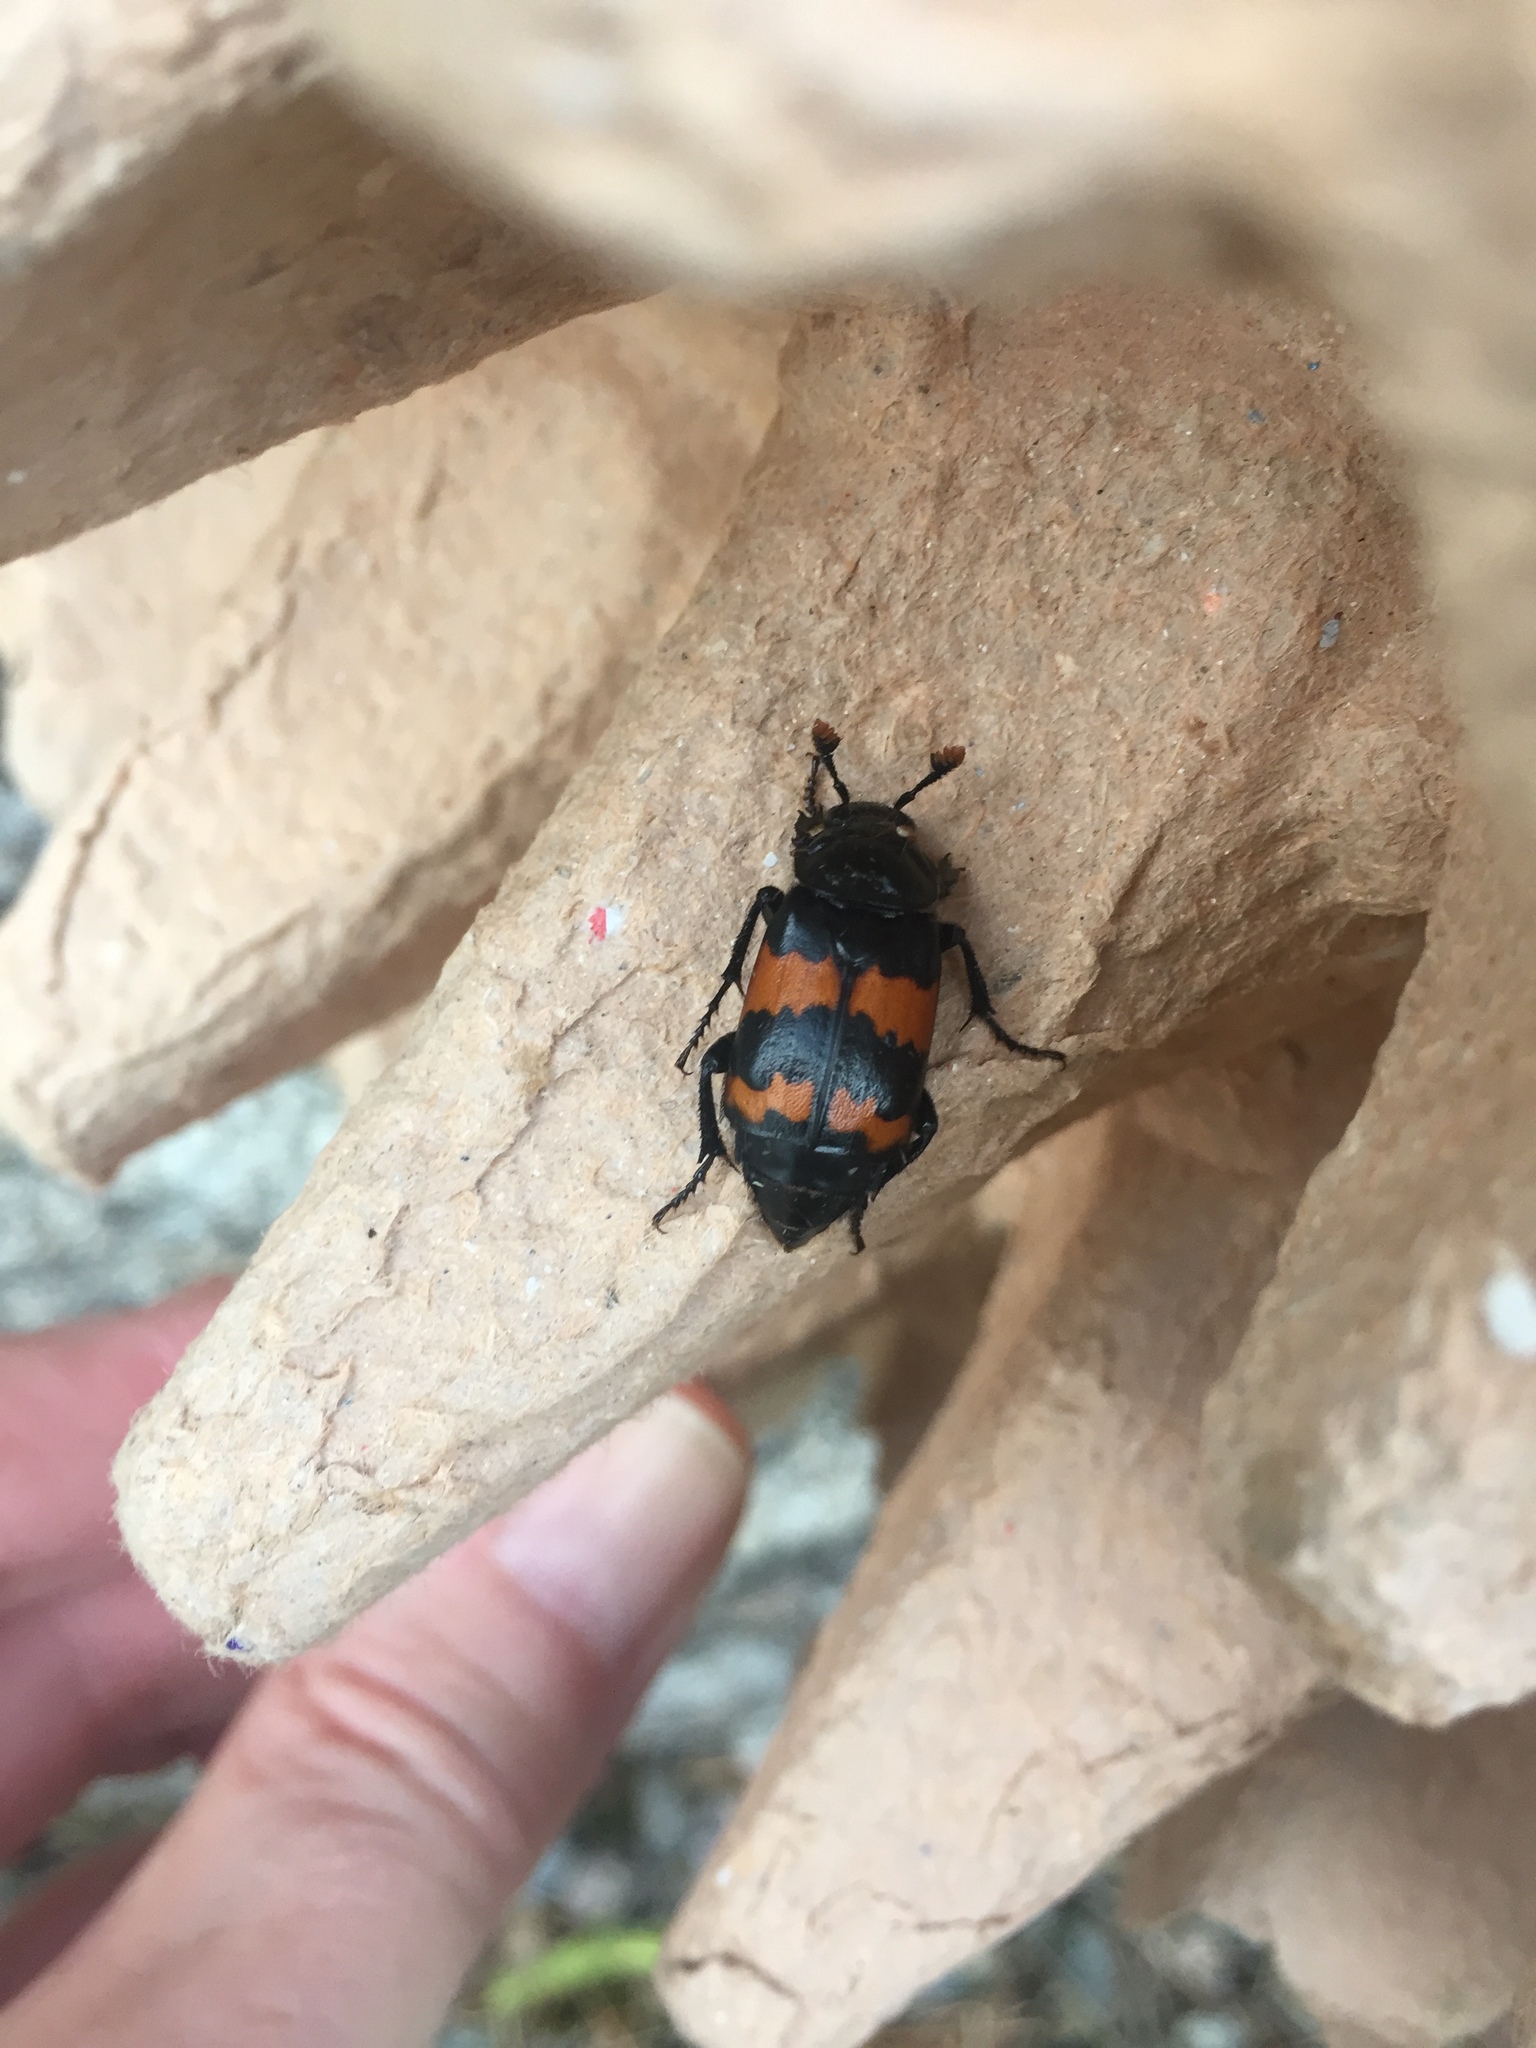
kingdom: Animalia
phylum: Arthropoda
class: Insecta
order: Coleoptera
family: Staphylinidae
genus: Nicrophorus
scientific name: Nicrophorus investigator
